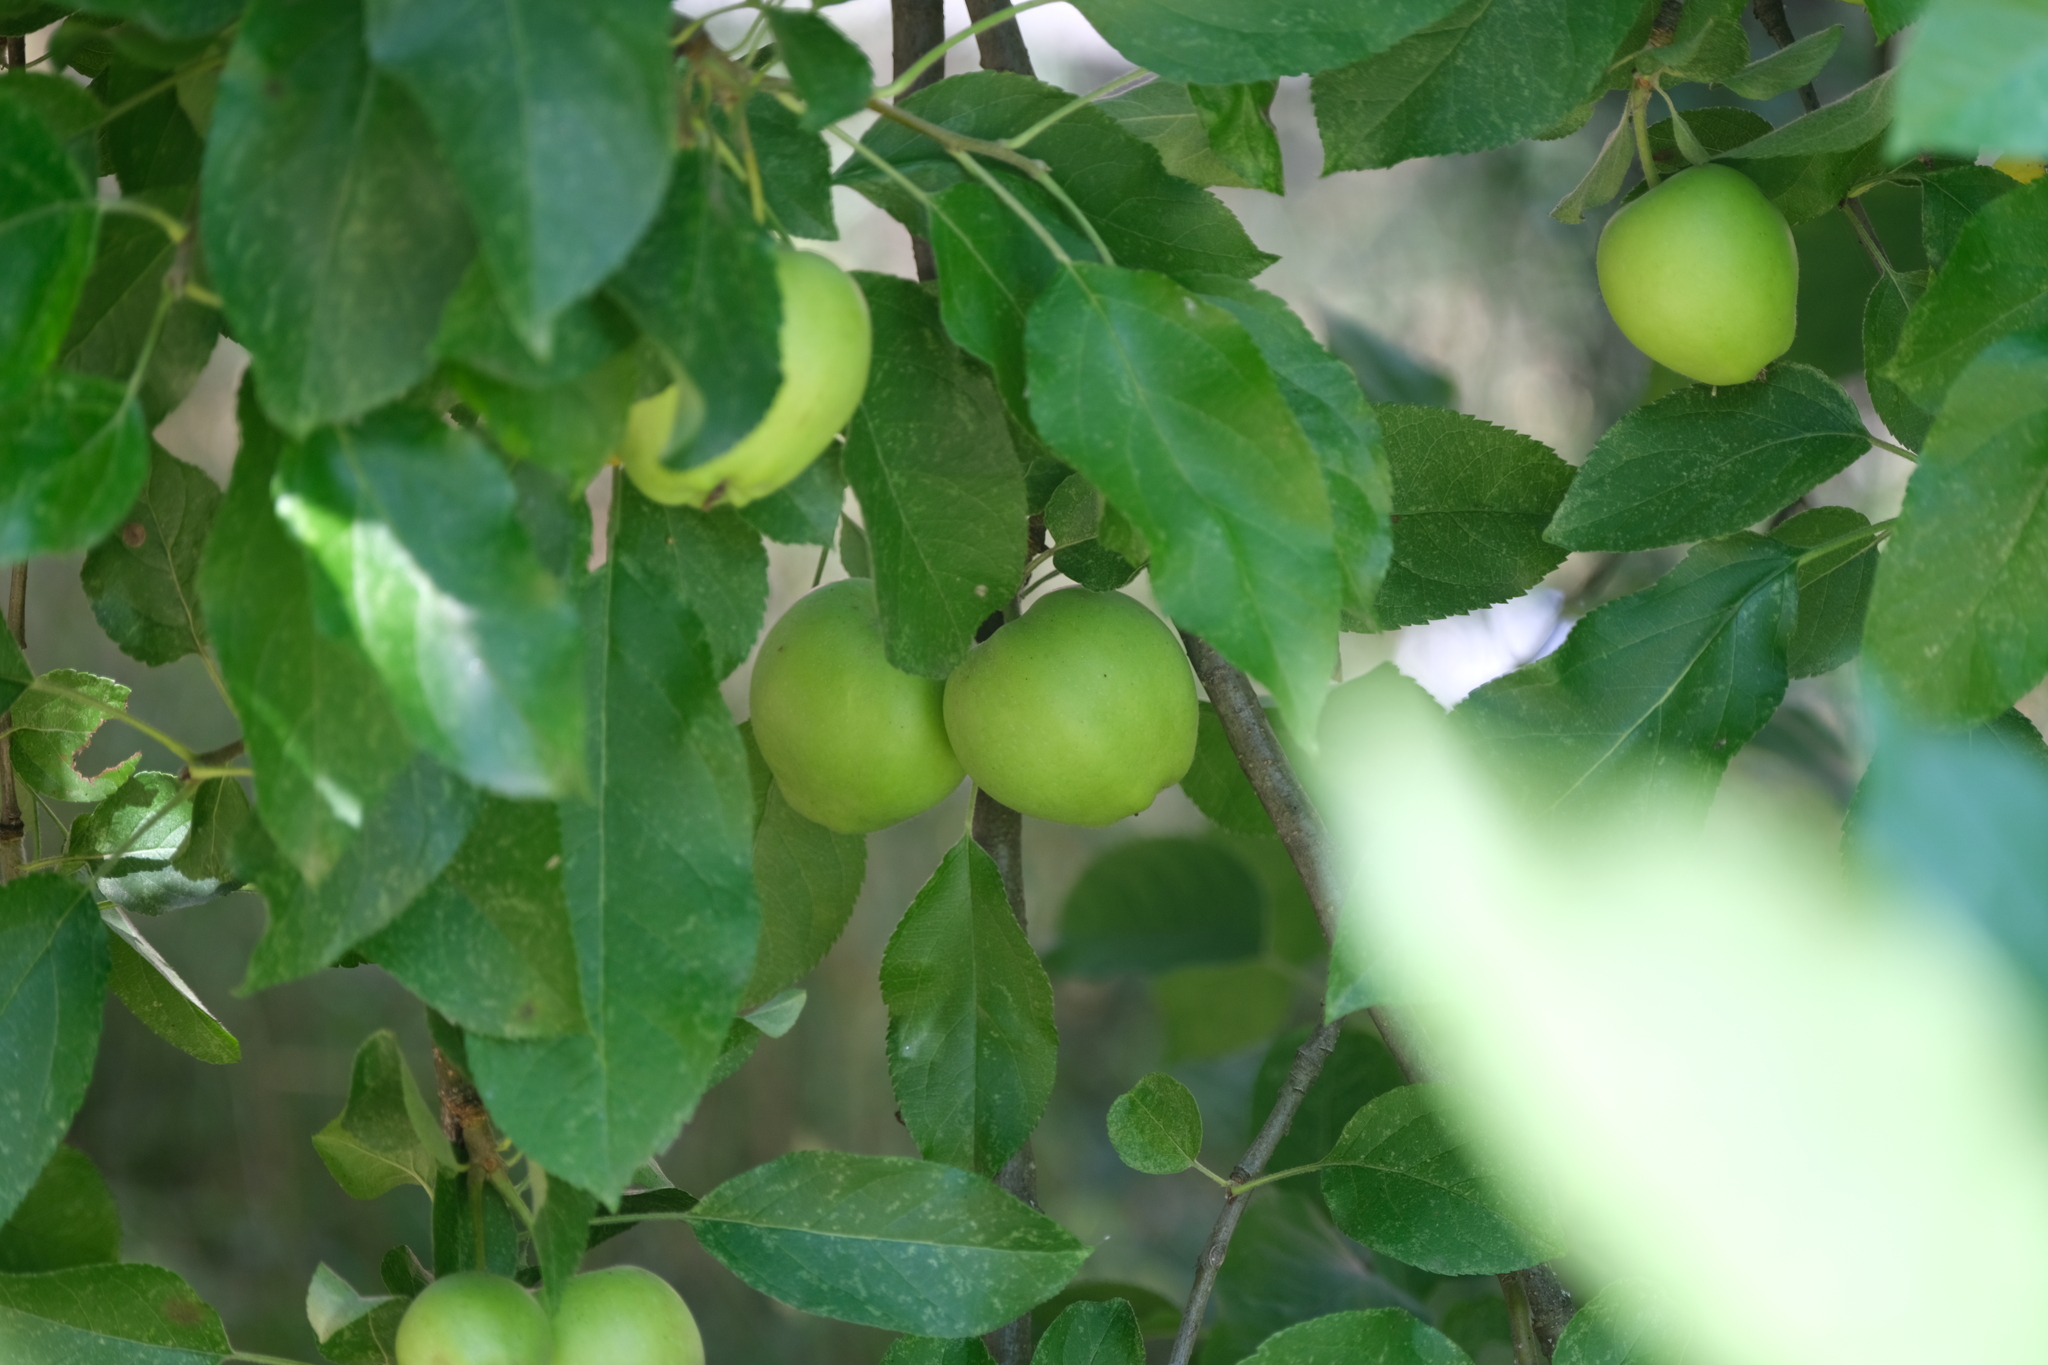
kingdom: Plantae
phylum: Tracheophyta
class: Magnoliopsida
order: Rosales
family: Rosaceae
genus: Malus
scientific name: Malus domestica
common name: Apple
